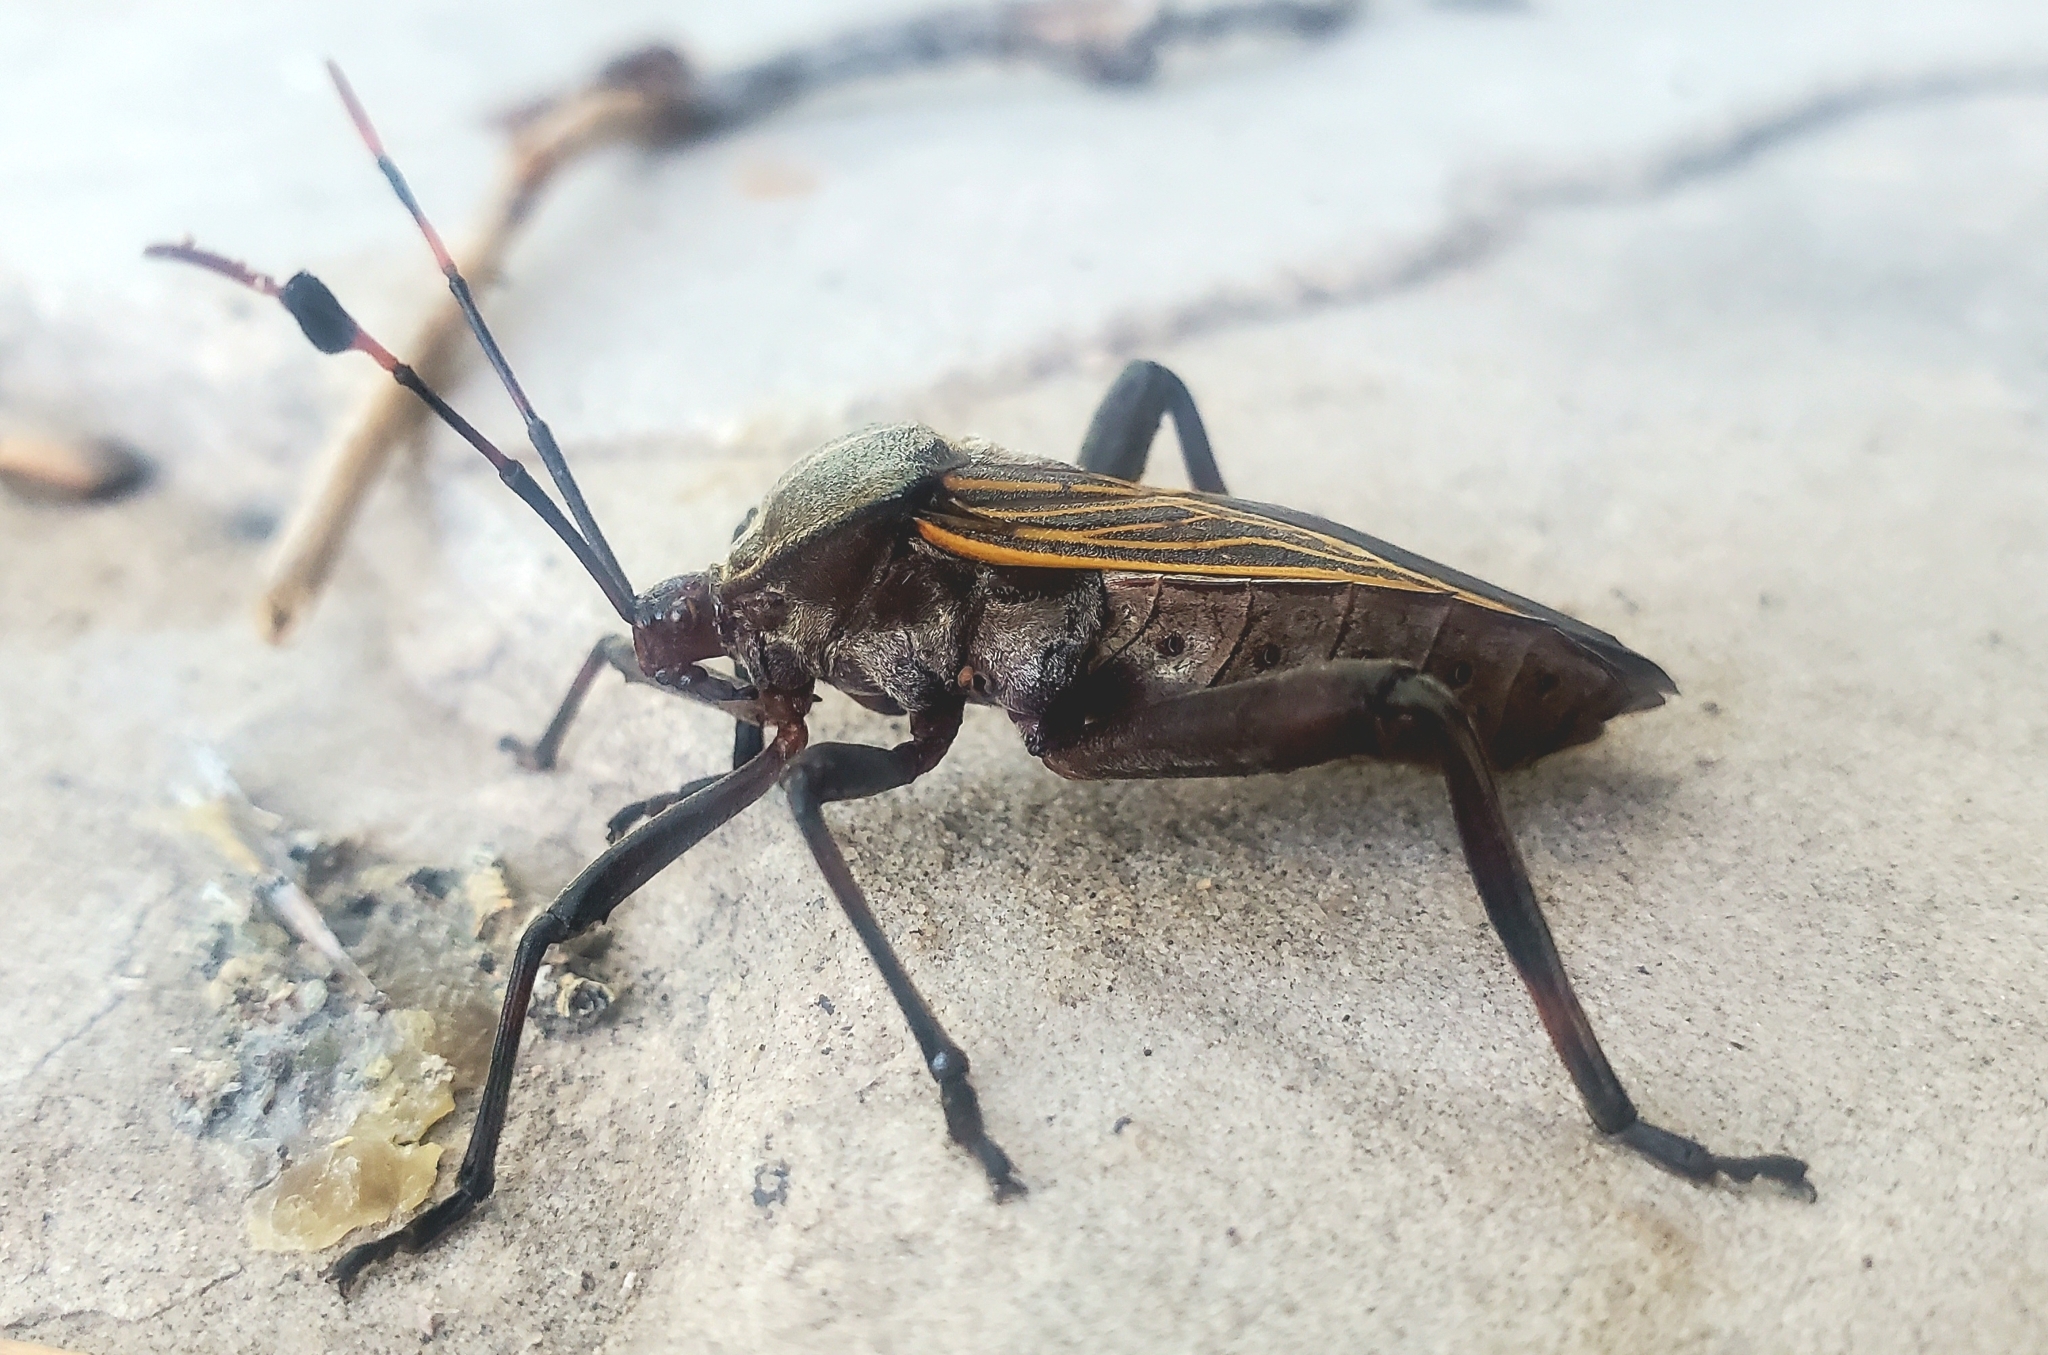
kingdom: Animalia
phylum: Arthropoda
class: Insecta
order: Hemiptera
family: Coreidae
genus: Thasus
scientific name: Thasus neocalifornicus
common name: Giant mesquite bug
